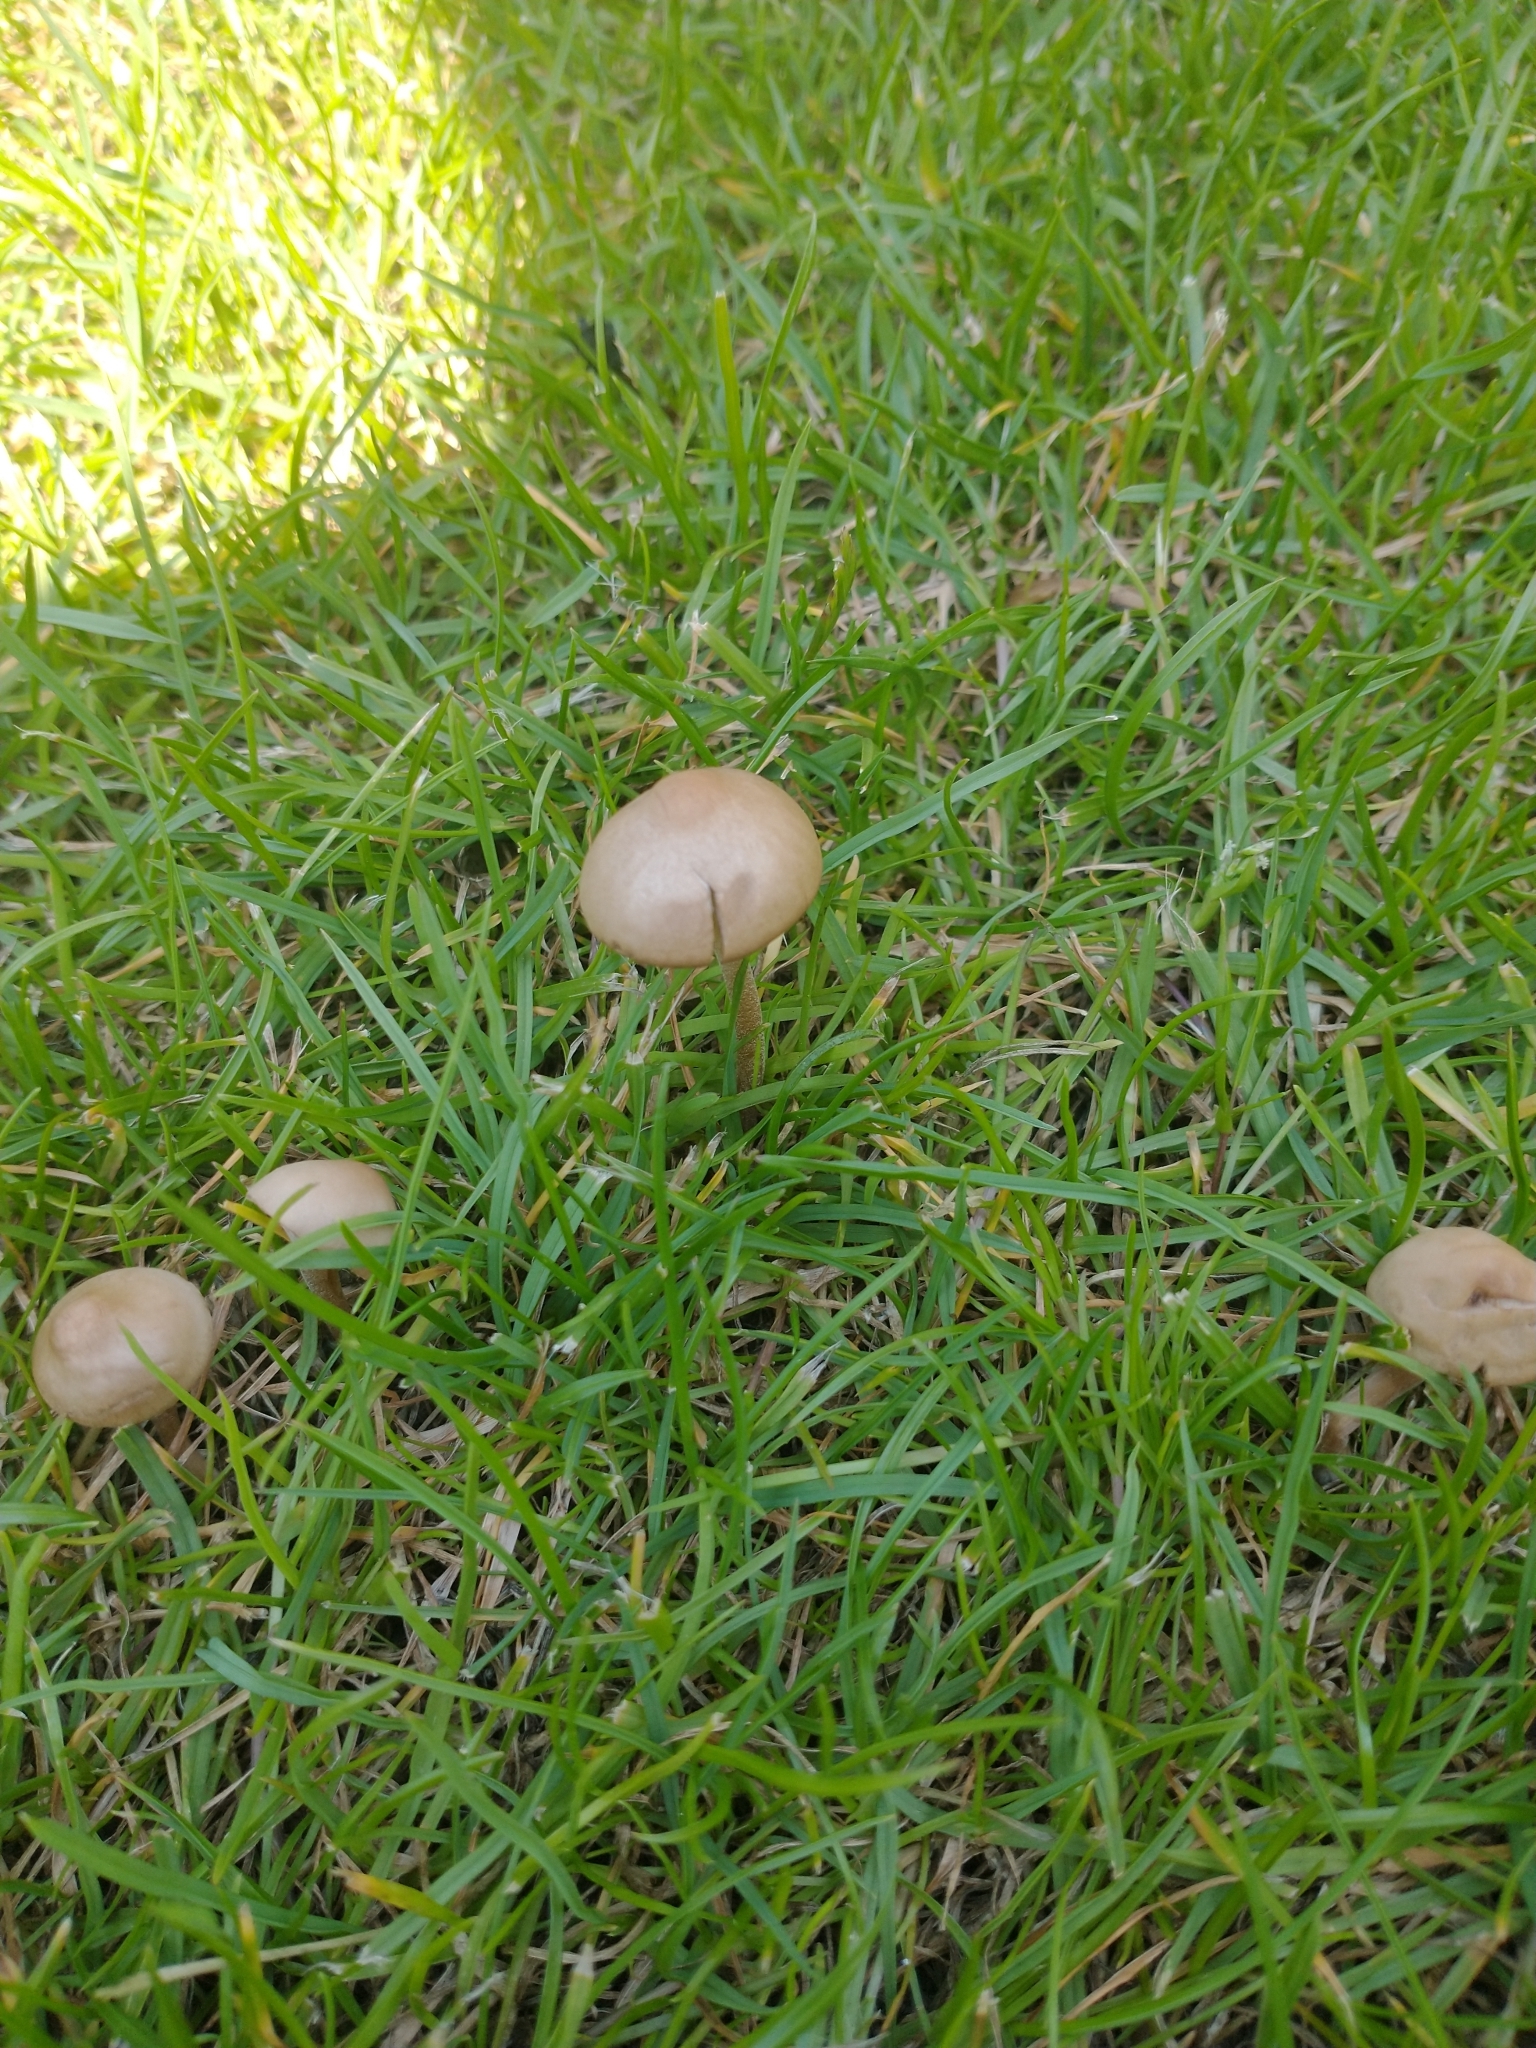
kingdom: Fungi
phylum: Basidiomycota
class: Agaricomycetes
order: Agaricales
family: Bolbitiaceae
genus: Panaeolina
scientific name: Panaeolina foenisecii
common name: Brown hay cap
